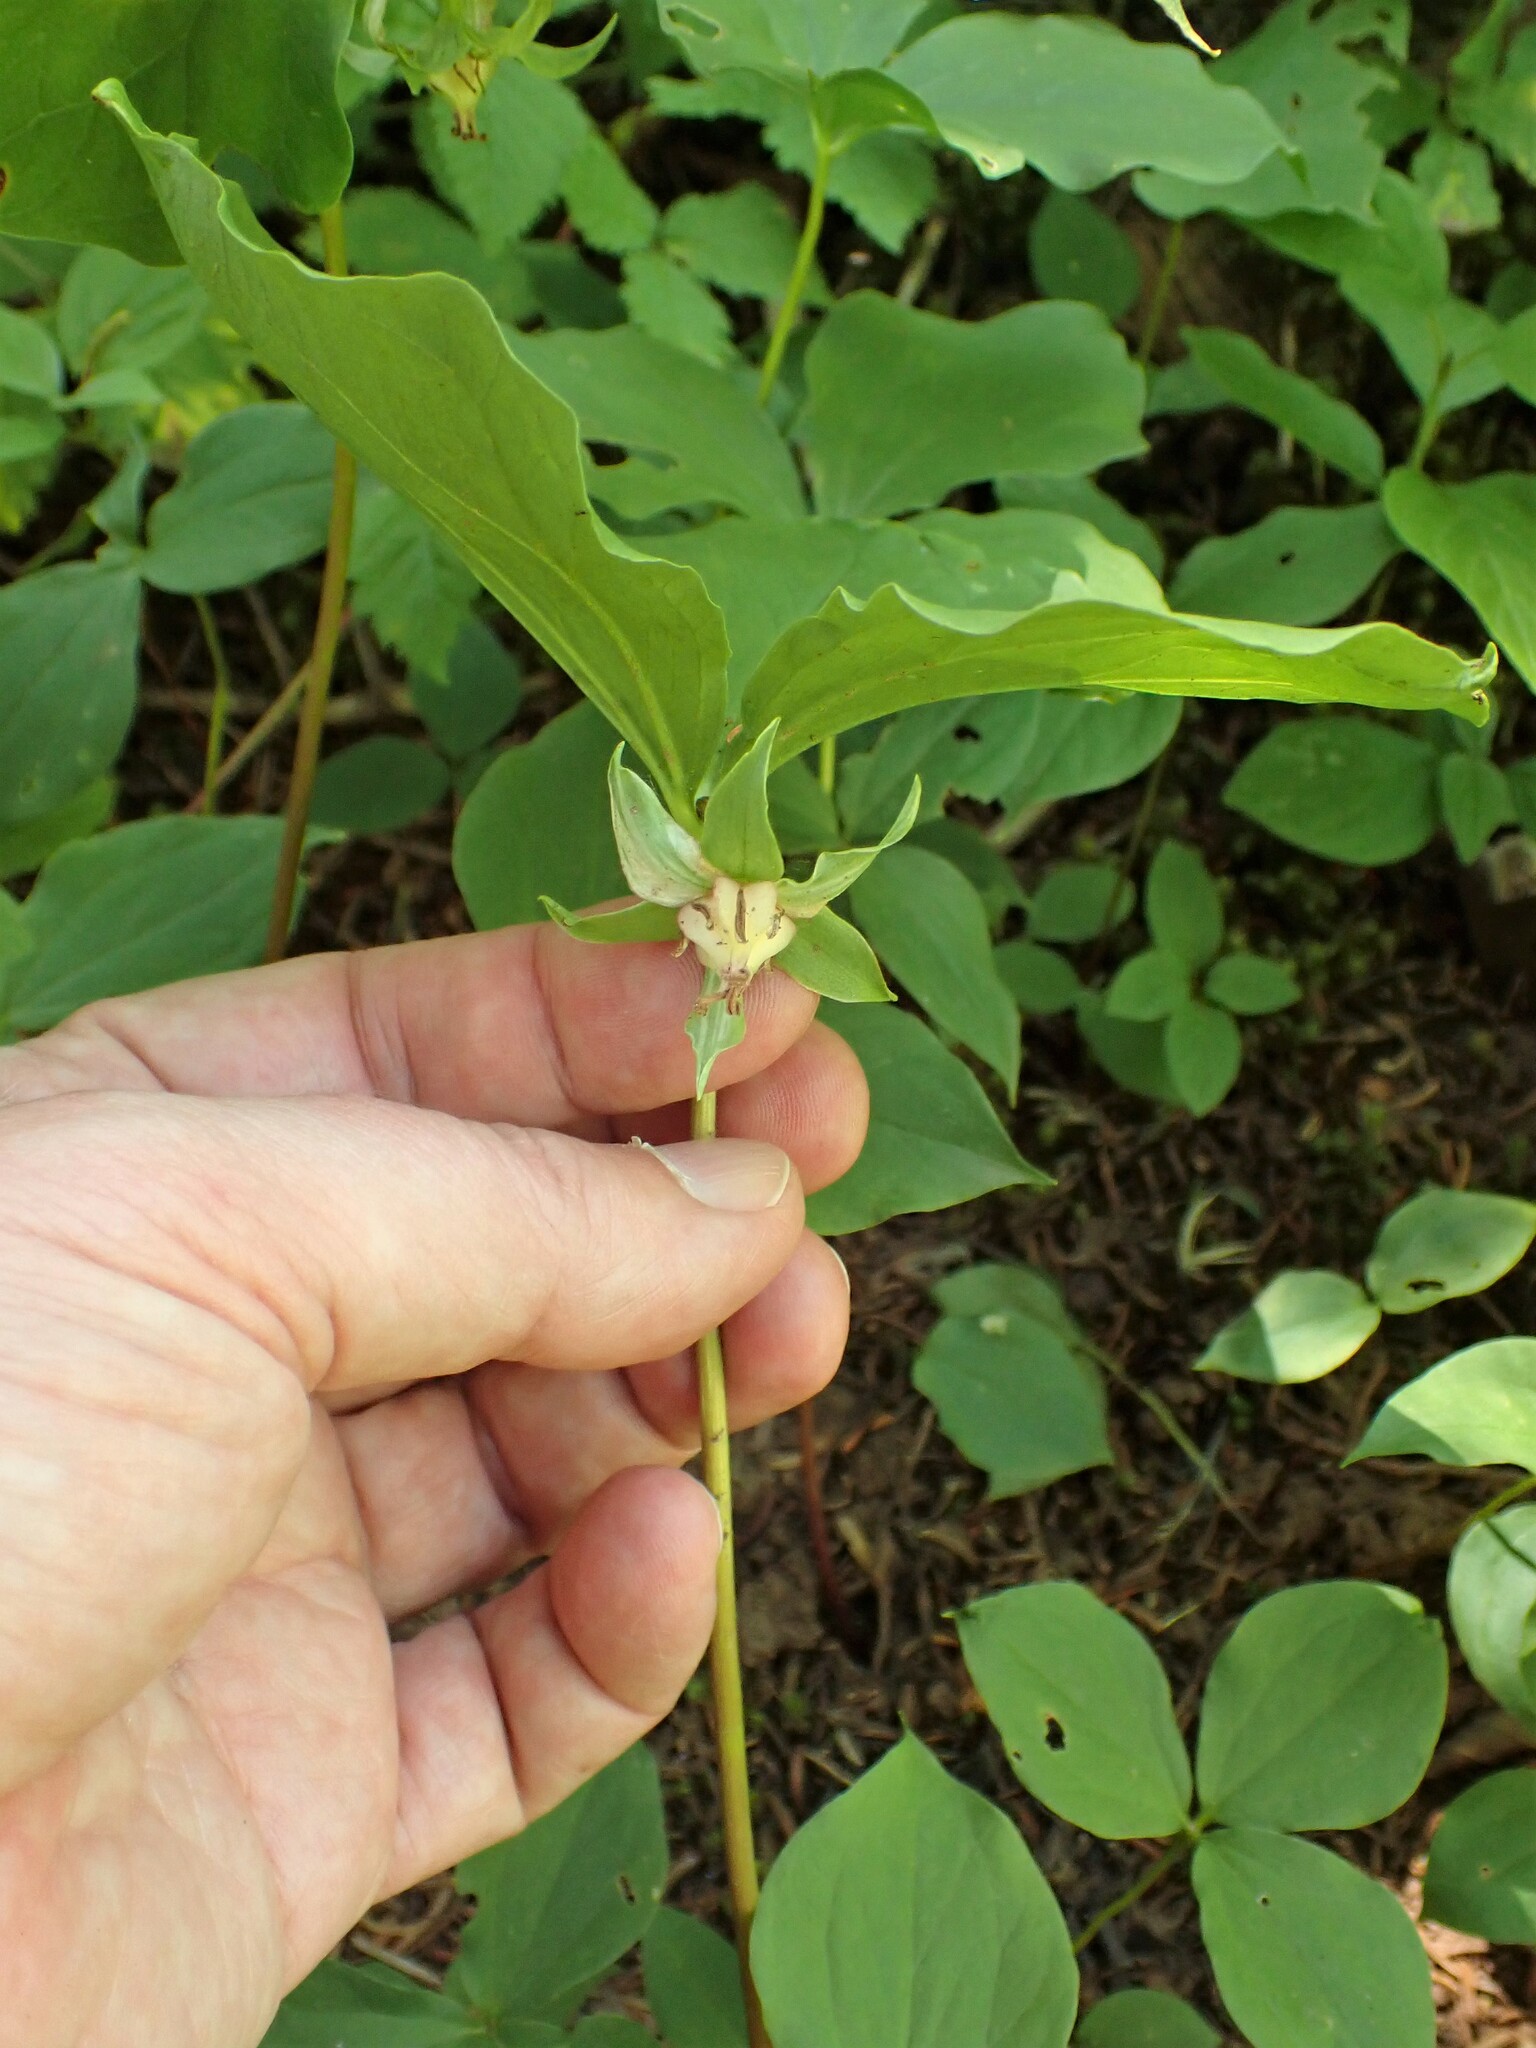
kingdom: Plantae
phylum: Tracheophyta
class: Liliopsida
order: Liliales
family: Melanthiaceae
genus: Trillium
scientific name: Trillium cernuum
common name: Nodding trillium
